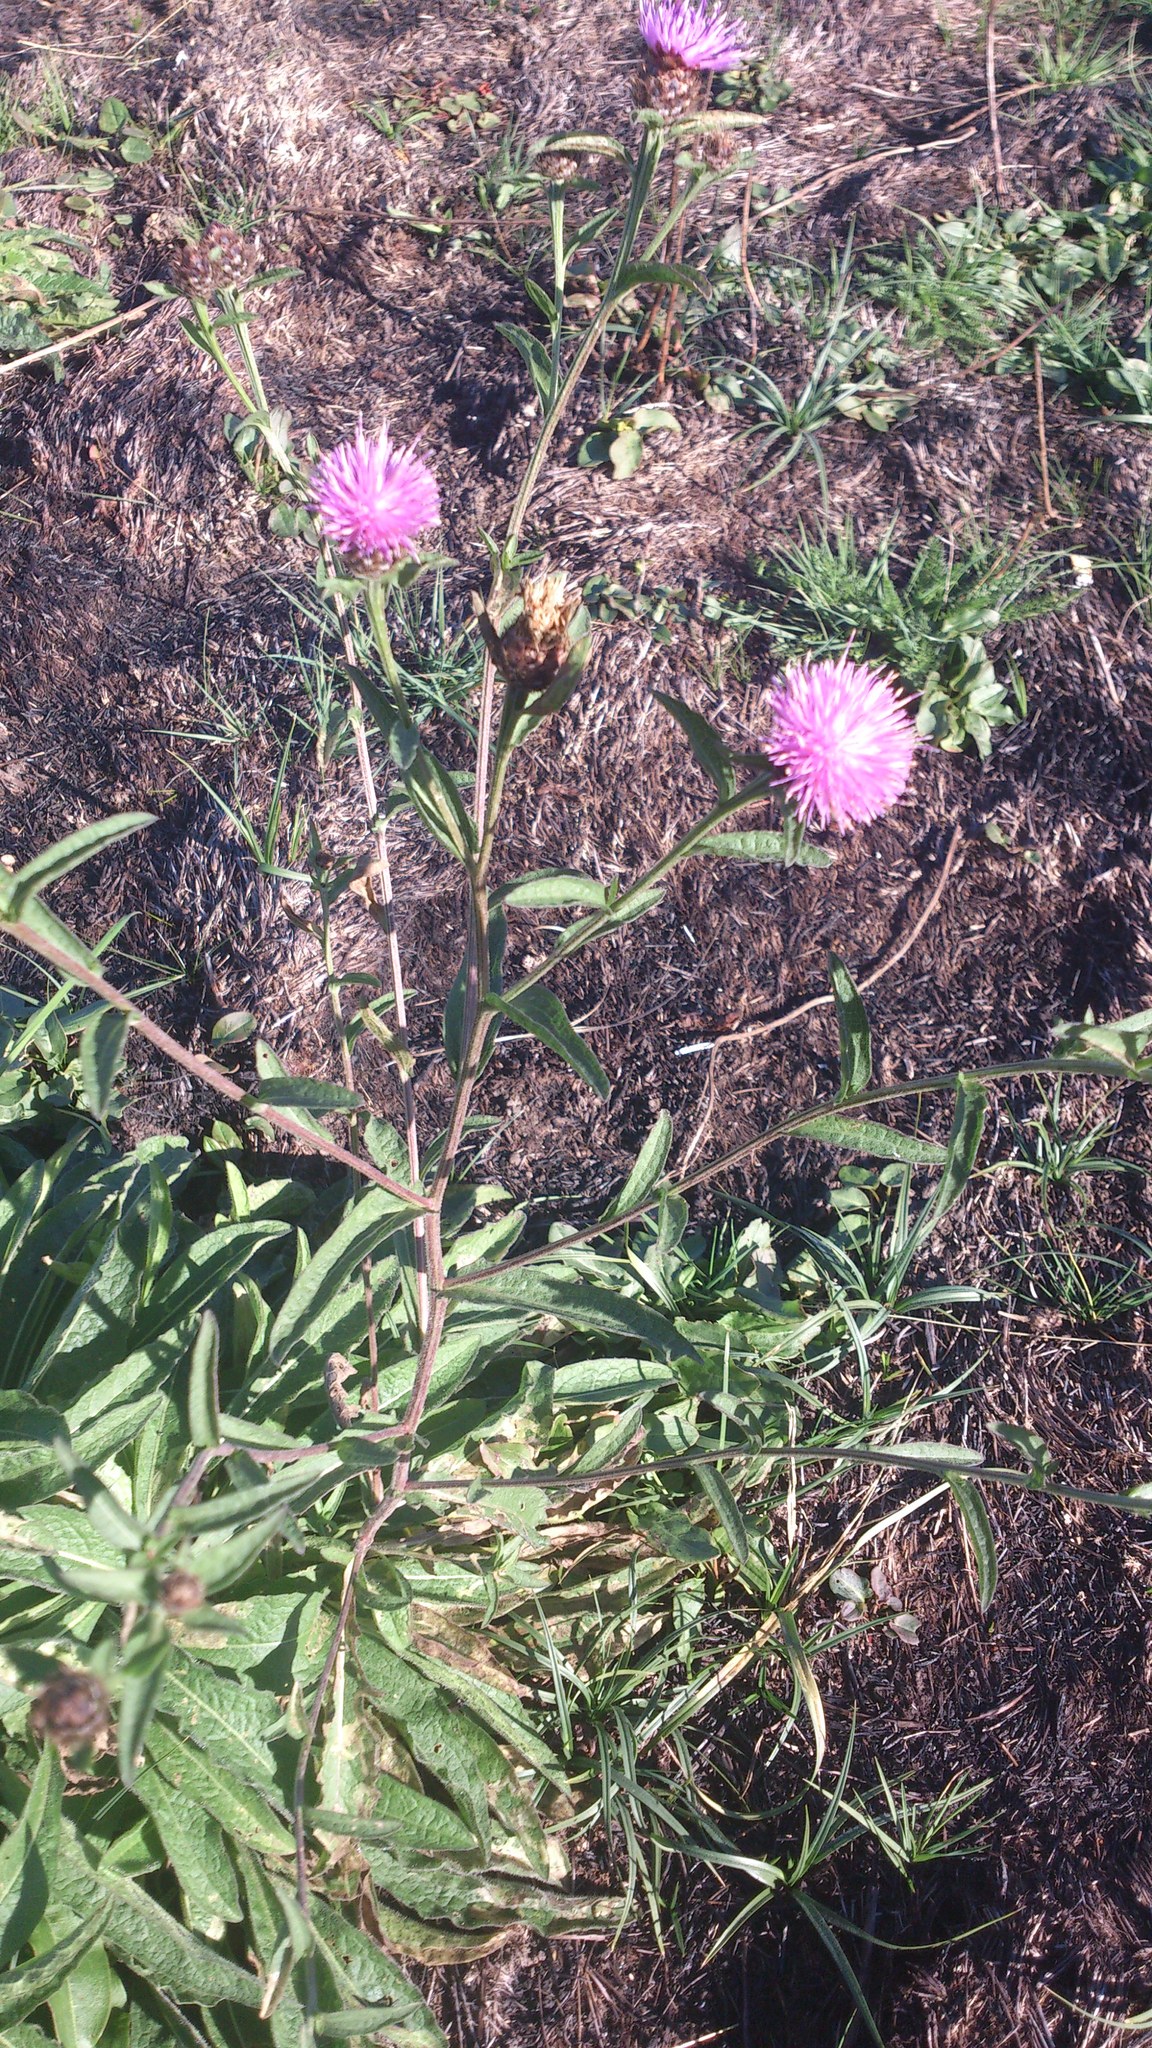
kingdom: Plantae
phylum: Tracheophyta
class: Magnoliopsida
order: Asterales
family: Asteraceae
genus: Centaurea
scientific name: Centaurea nigra
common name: Lesser knapweed
